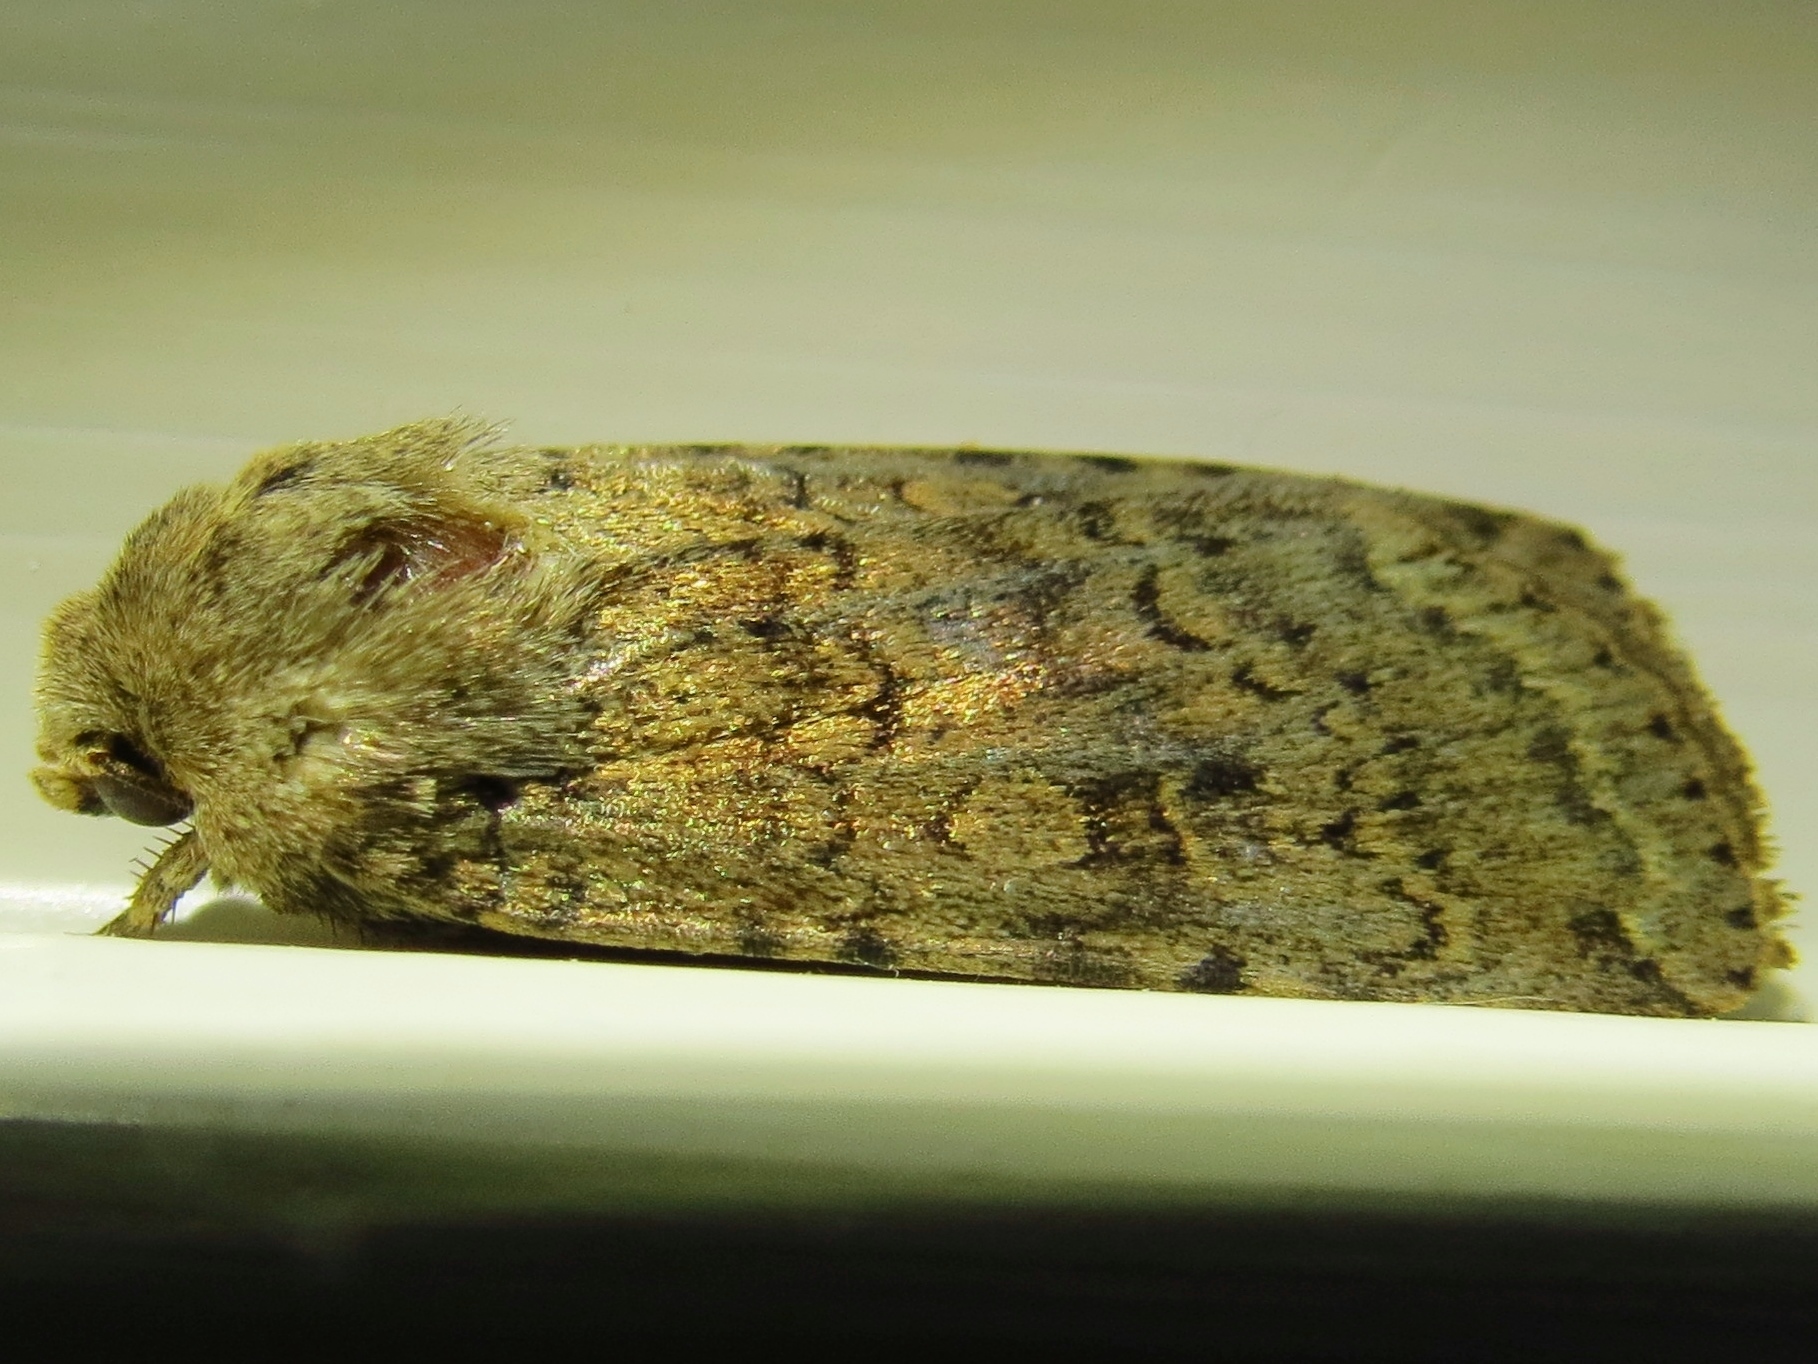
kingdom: Animalia
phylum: Arthropoda
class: Insecta
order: Lepidoptera
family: Noctuidae
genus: Rhyacia
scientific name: Rhyacia simulans
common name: Dotted rustic
